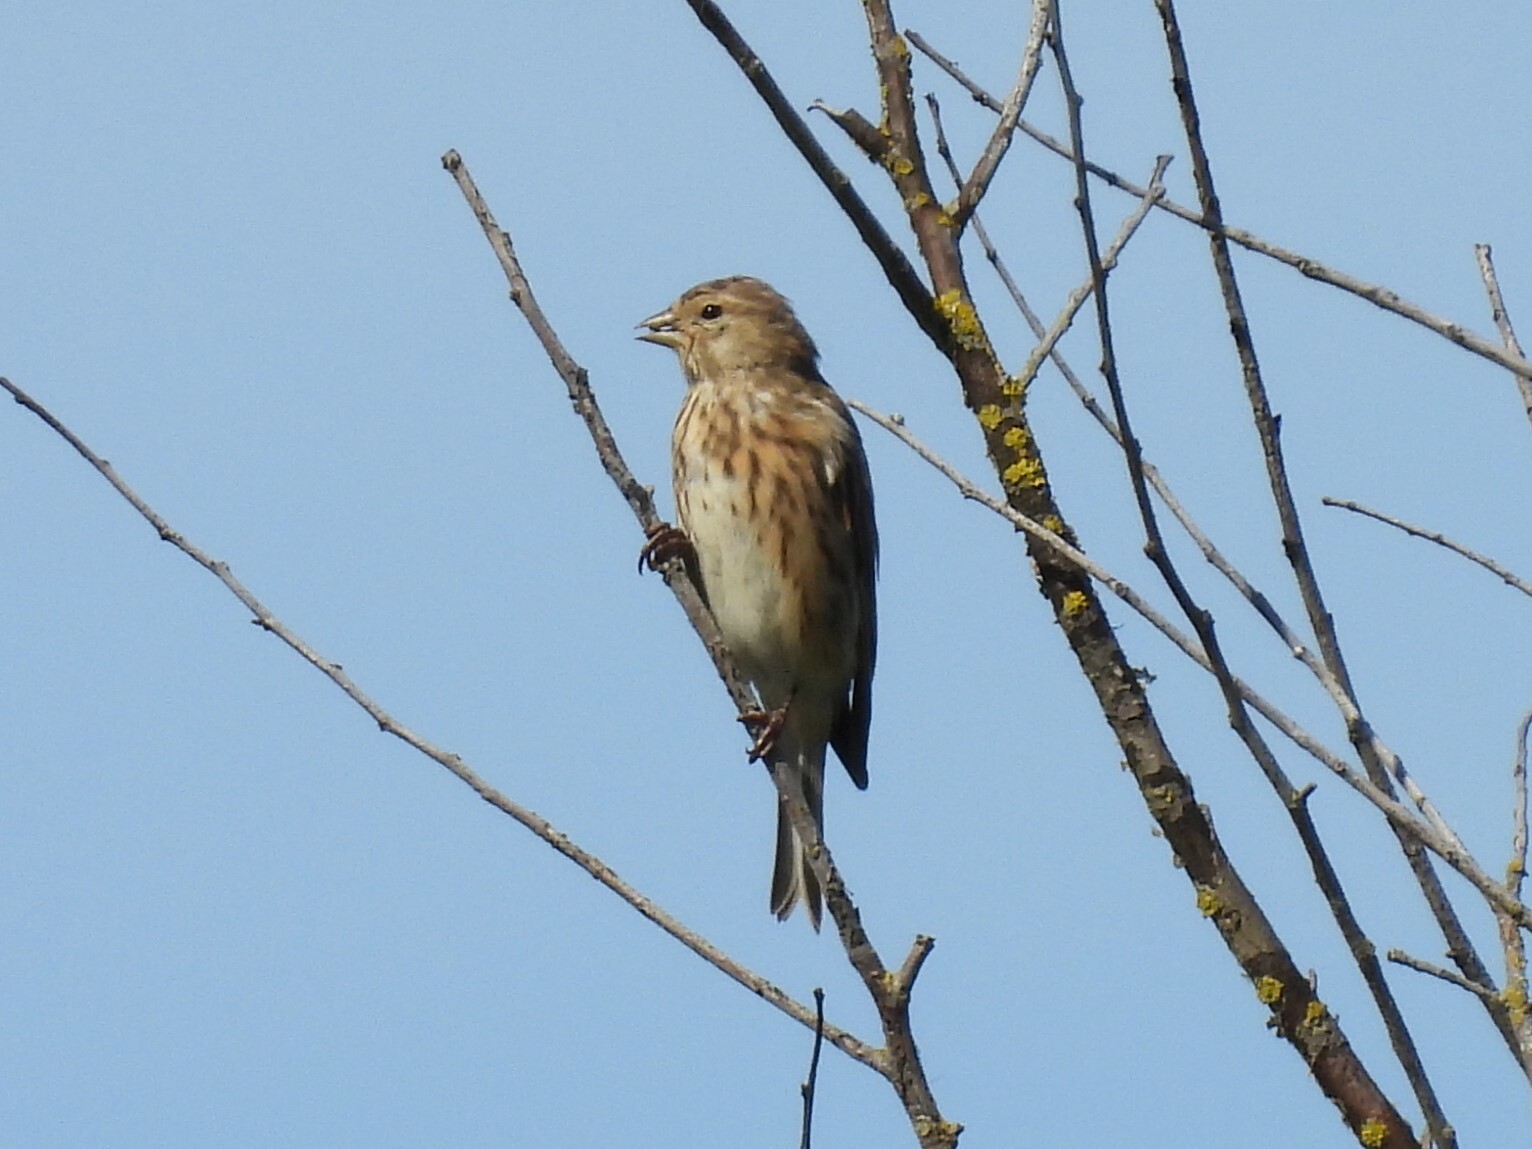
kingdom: Animalia
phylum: Chordata
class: Aves
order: Passeriformes
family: Fringillidae
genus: Linaria
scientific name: Linaria cannabina
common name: Common linnet
